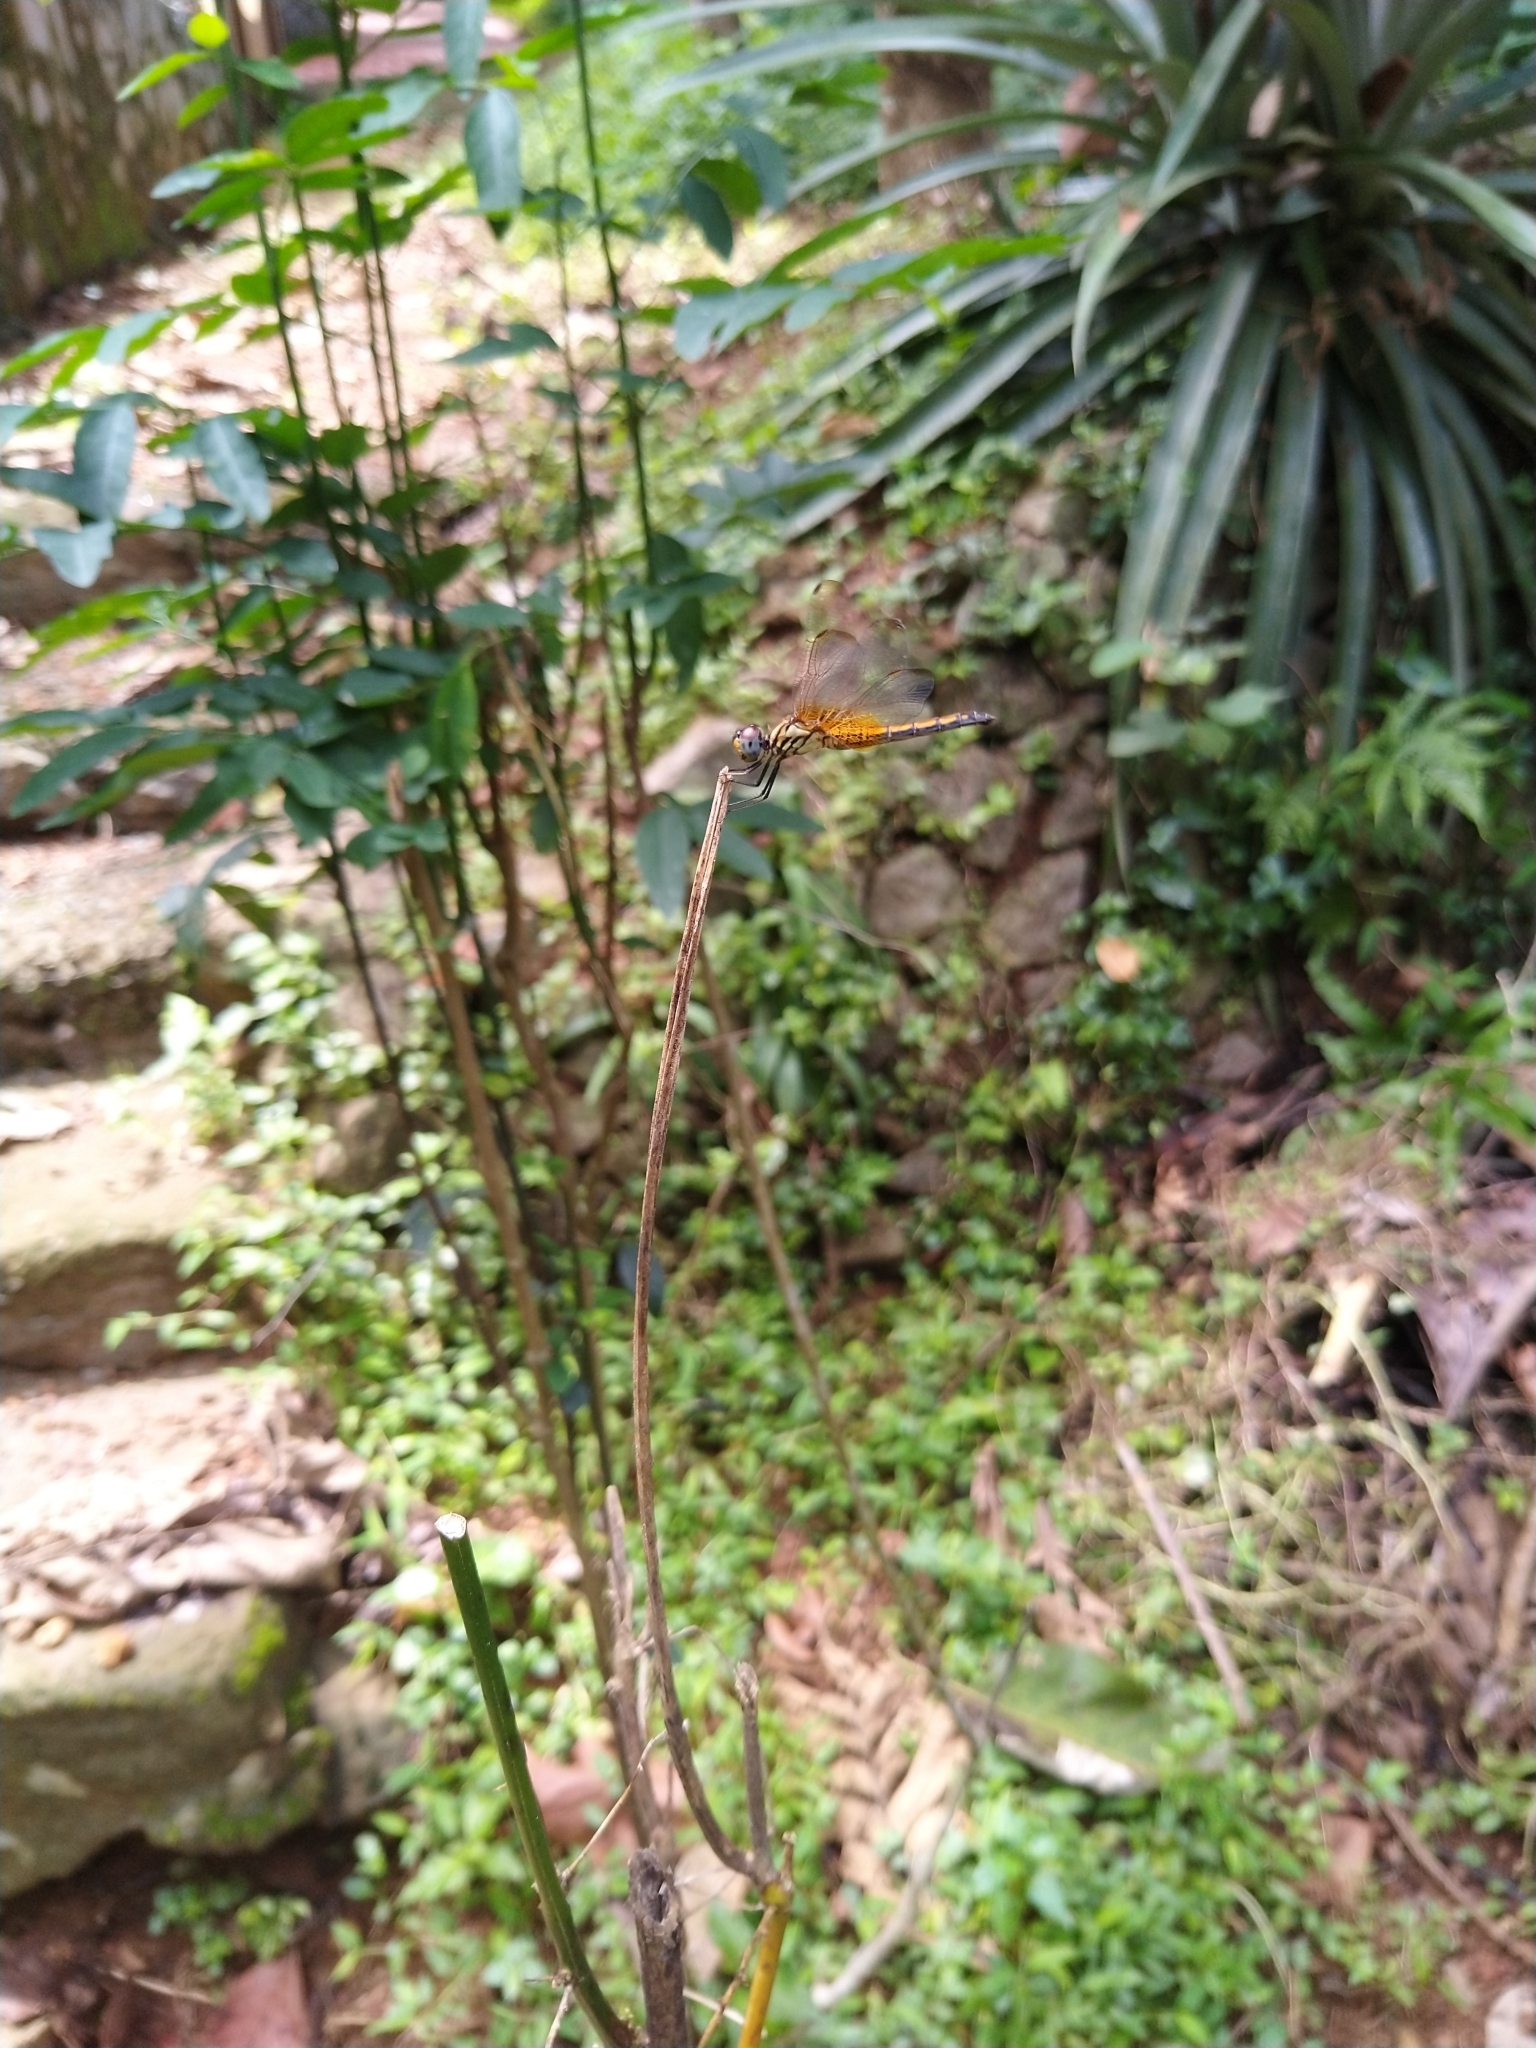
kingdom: Animalia
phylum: Arthropoda
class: Insecta
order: Odonata
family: Libellulidae
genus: Trithemis
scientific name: Trithemis aurora
